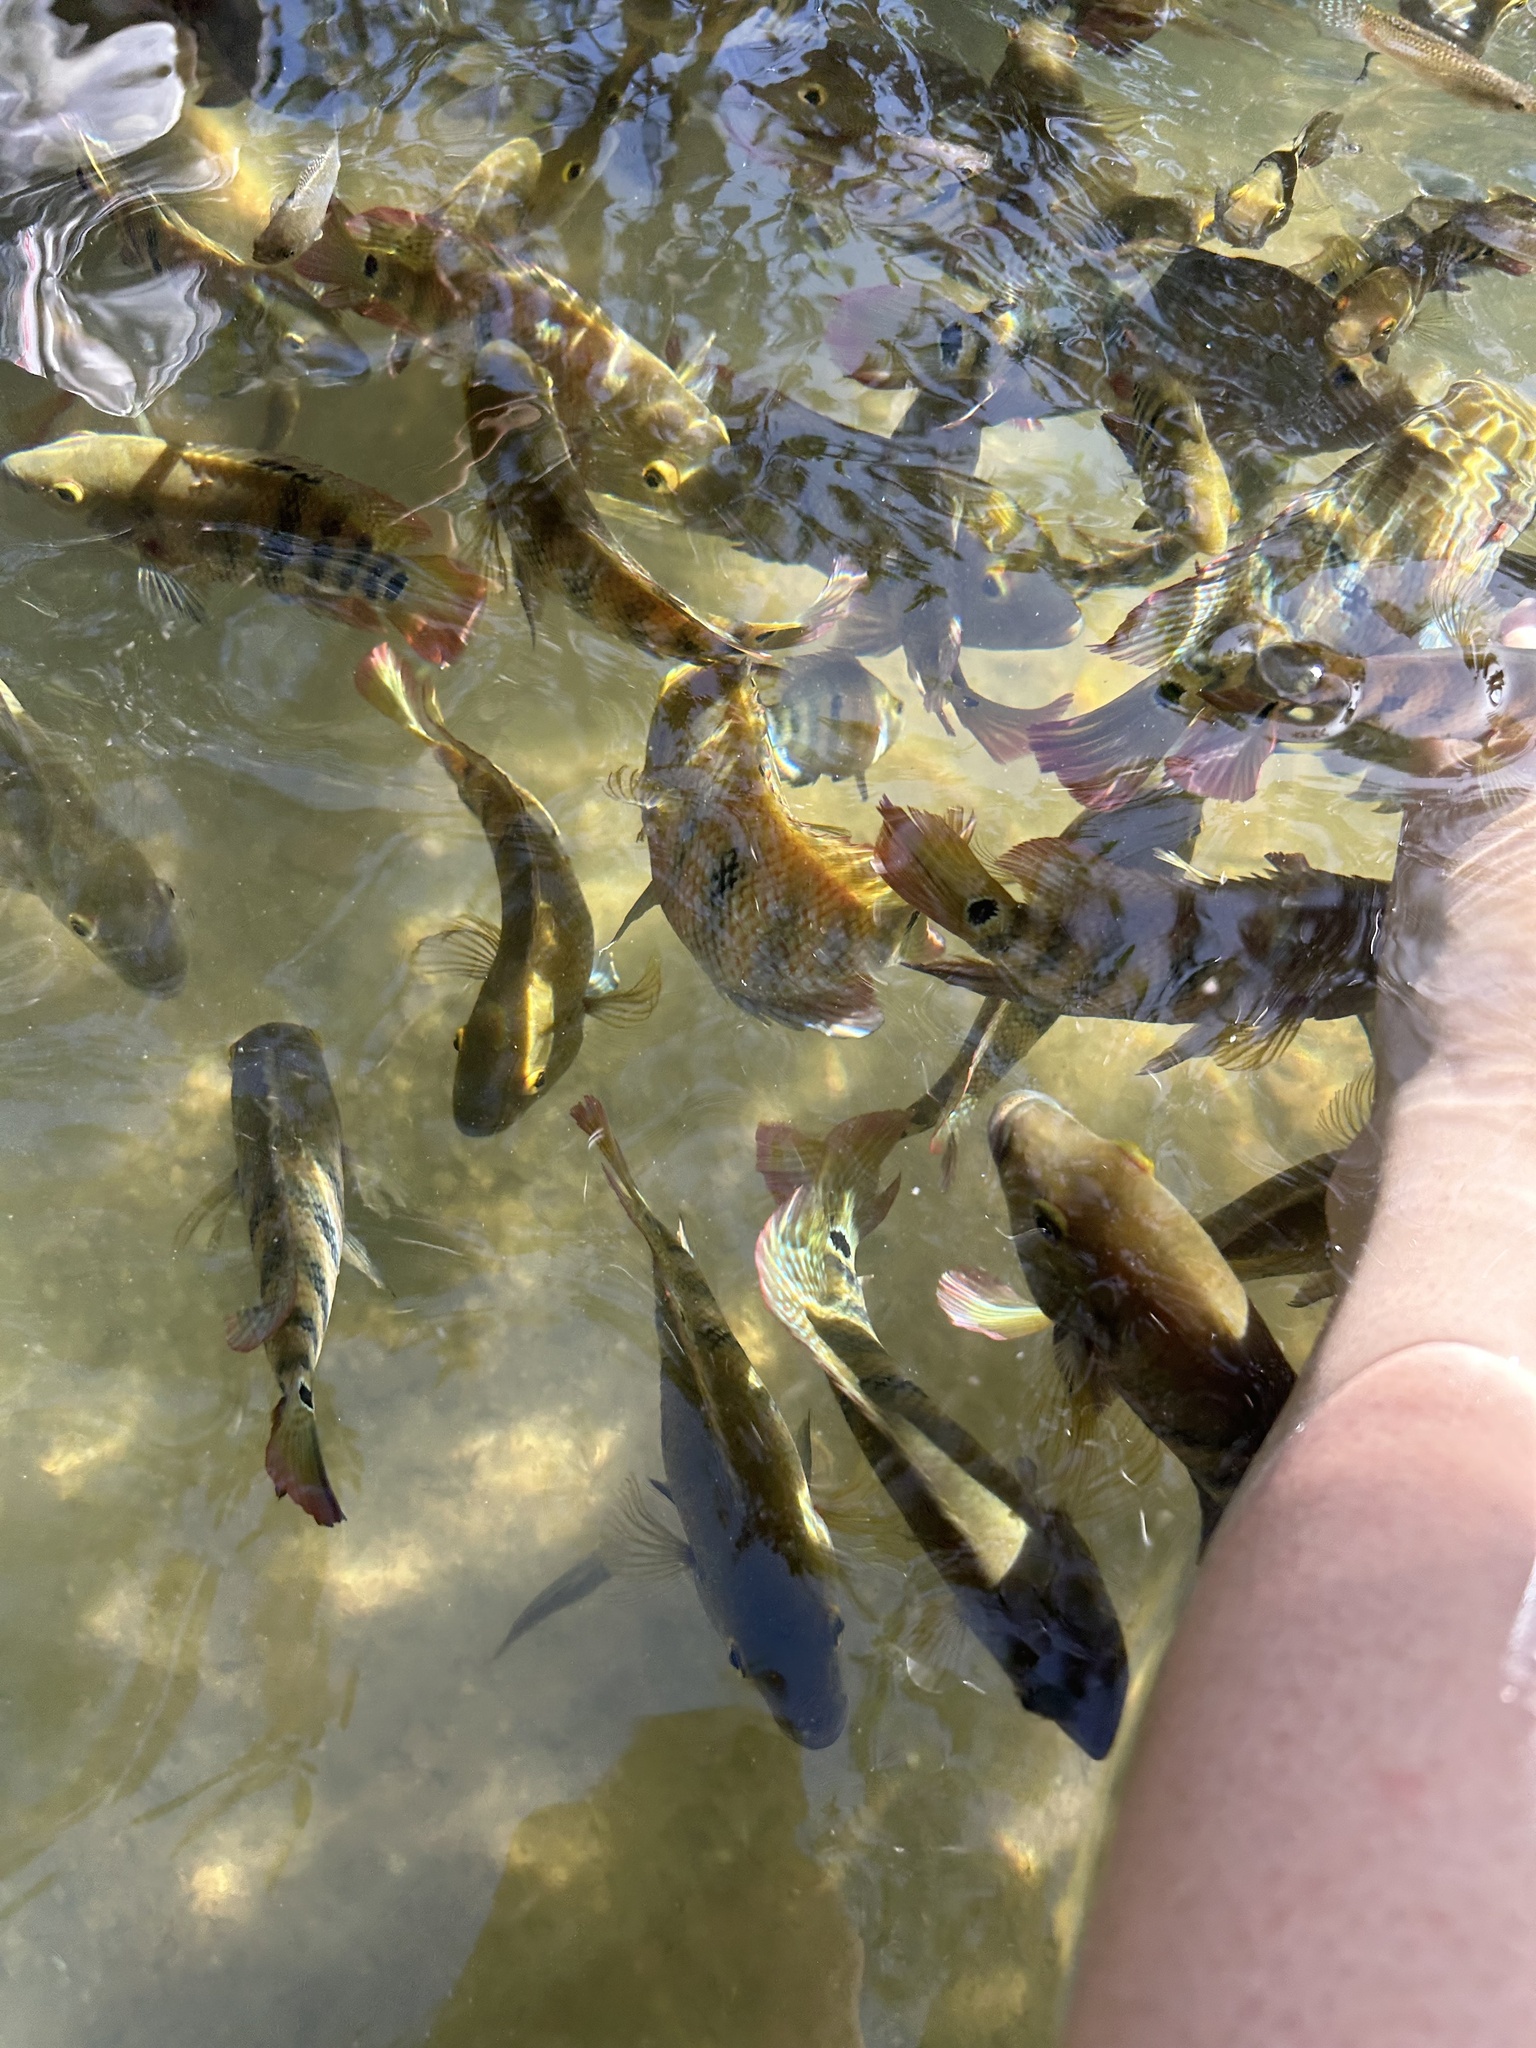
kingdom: Animalia
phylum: Chordata
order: Perciformes
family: Cichlidae
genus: Mayaheros
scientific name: Mayaheros urophthalmus
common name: Mayan cichlid
